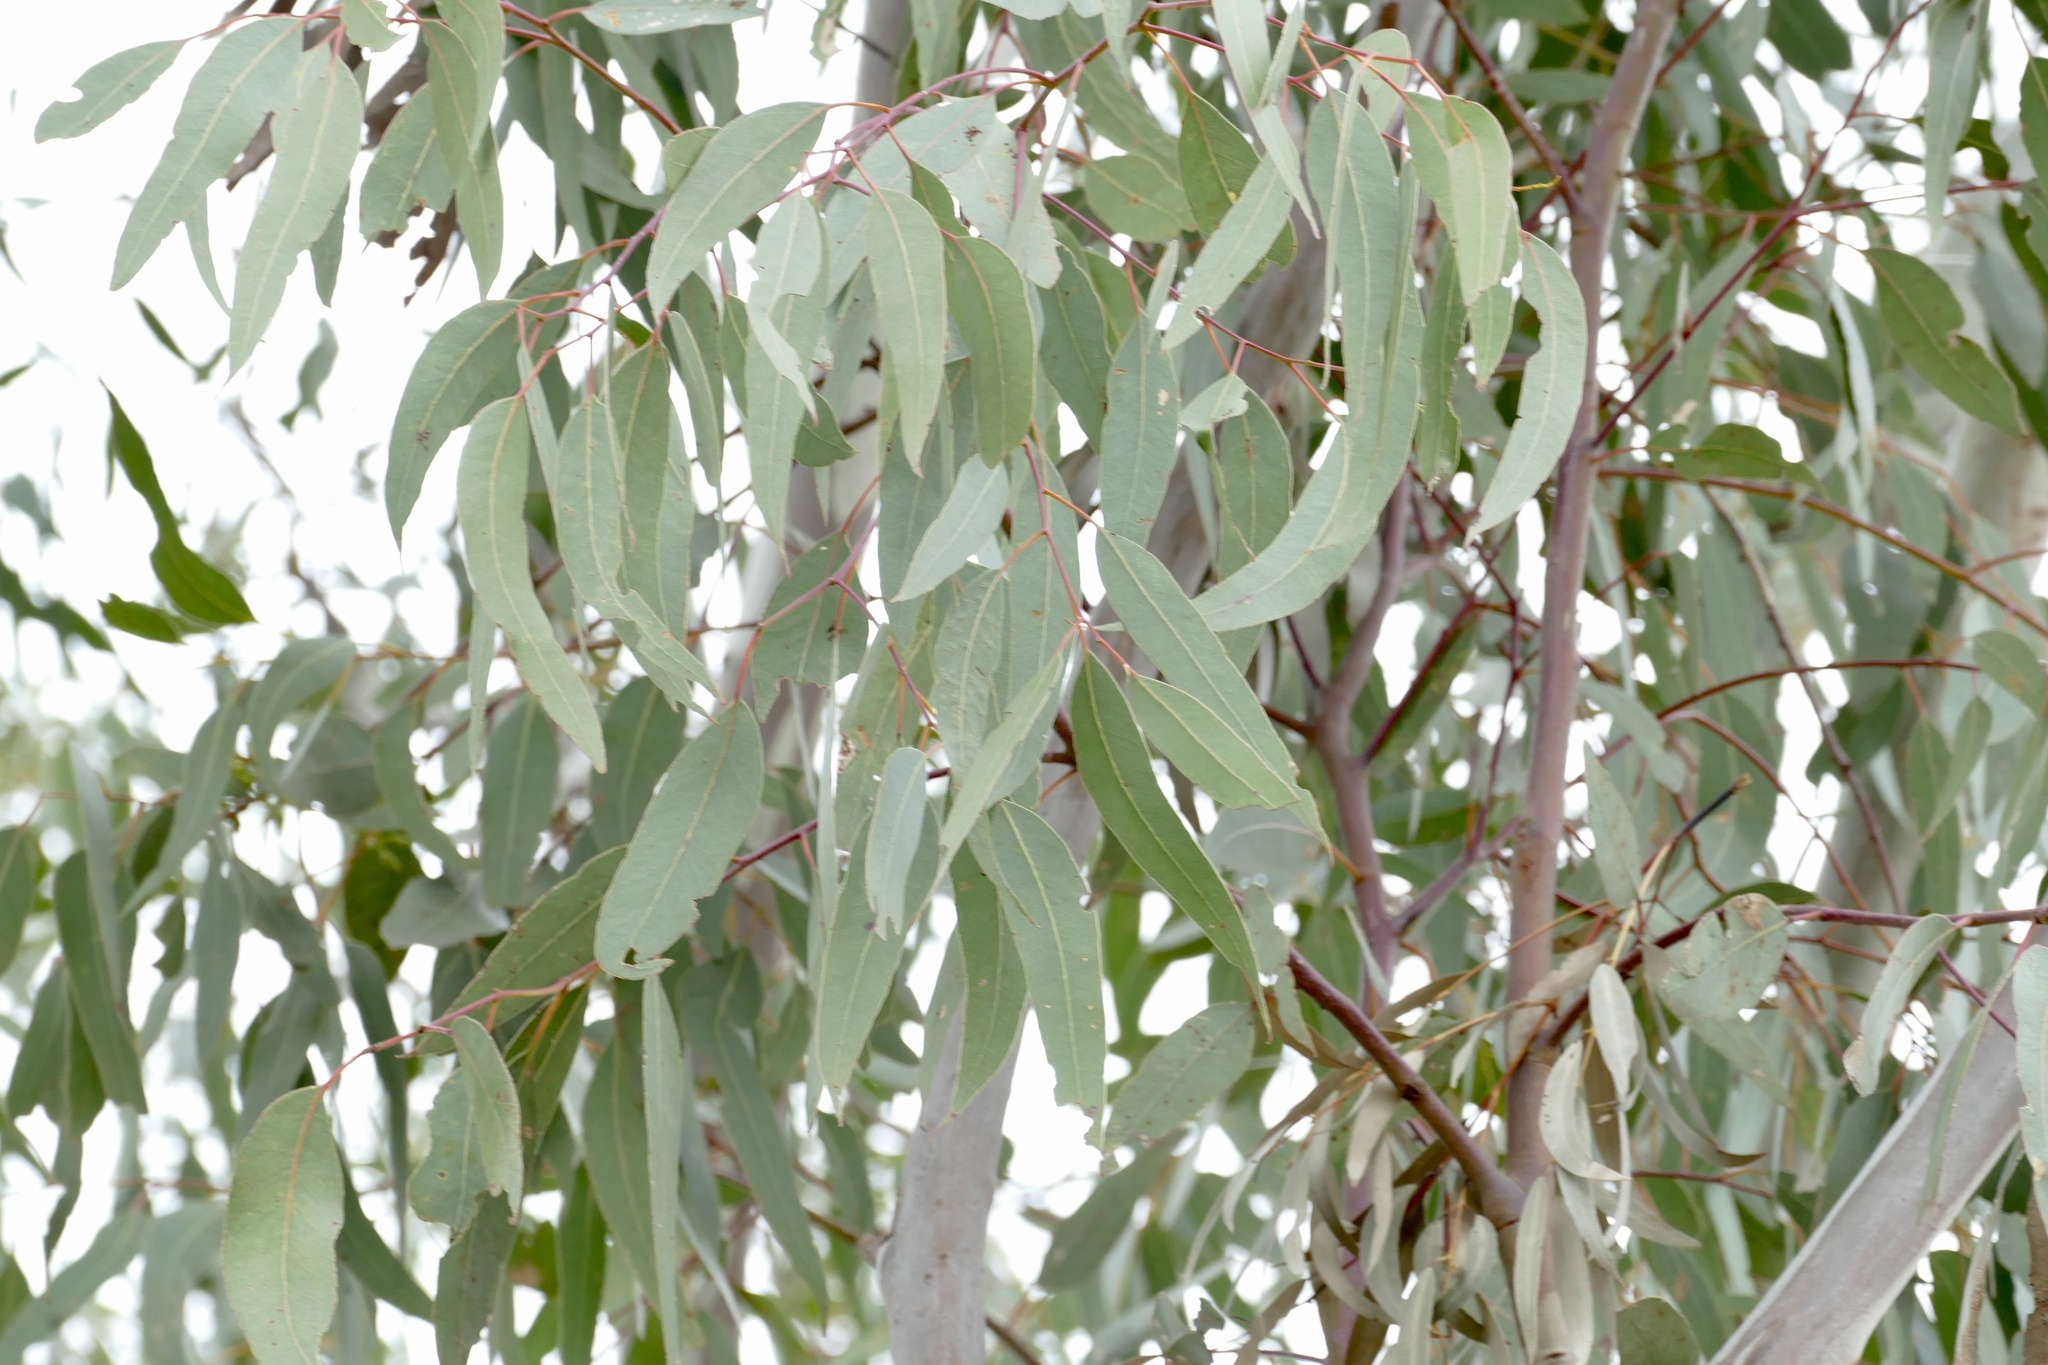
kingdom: Plantae
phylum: Tracheophyta
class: Magnoliopsida
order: Myrtales
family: Myrtaceae
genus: Eucalyptus
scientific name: Eucalyptus chloroclada
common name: Baradine red gum
